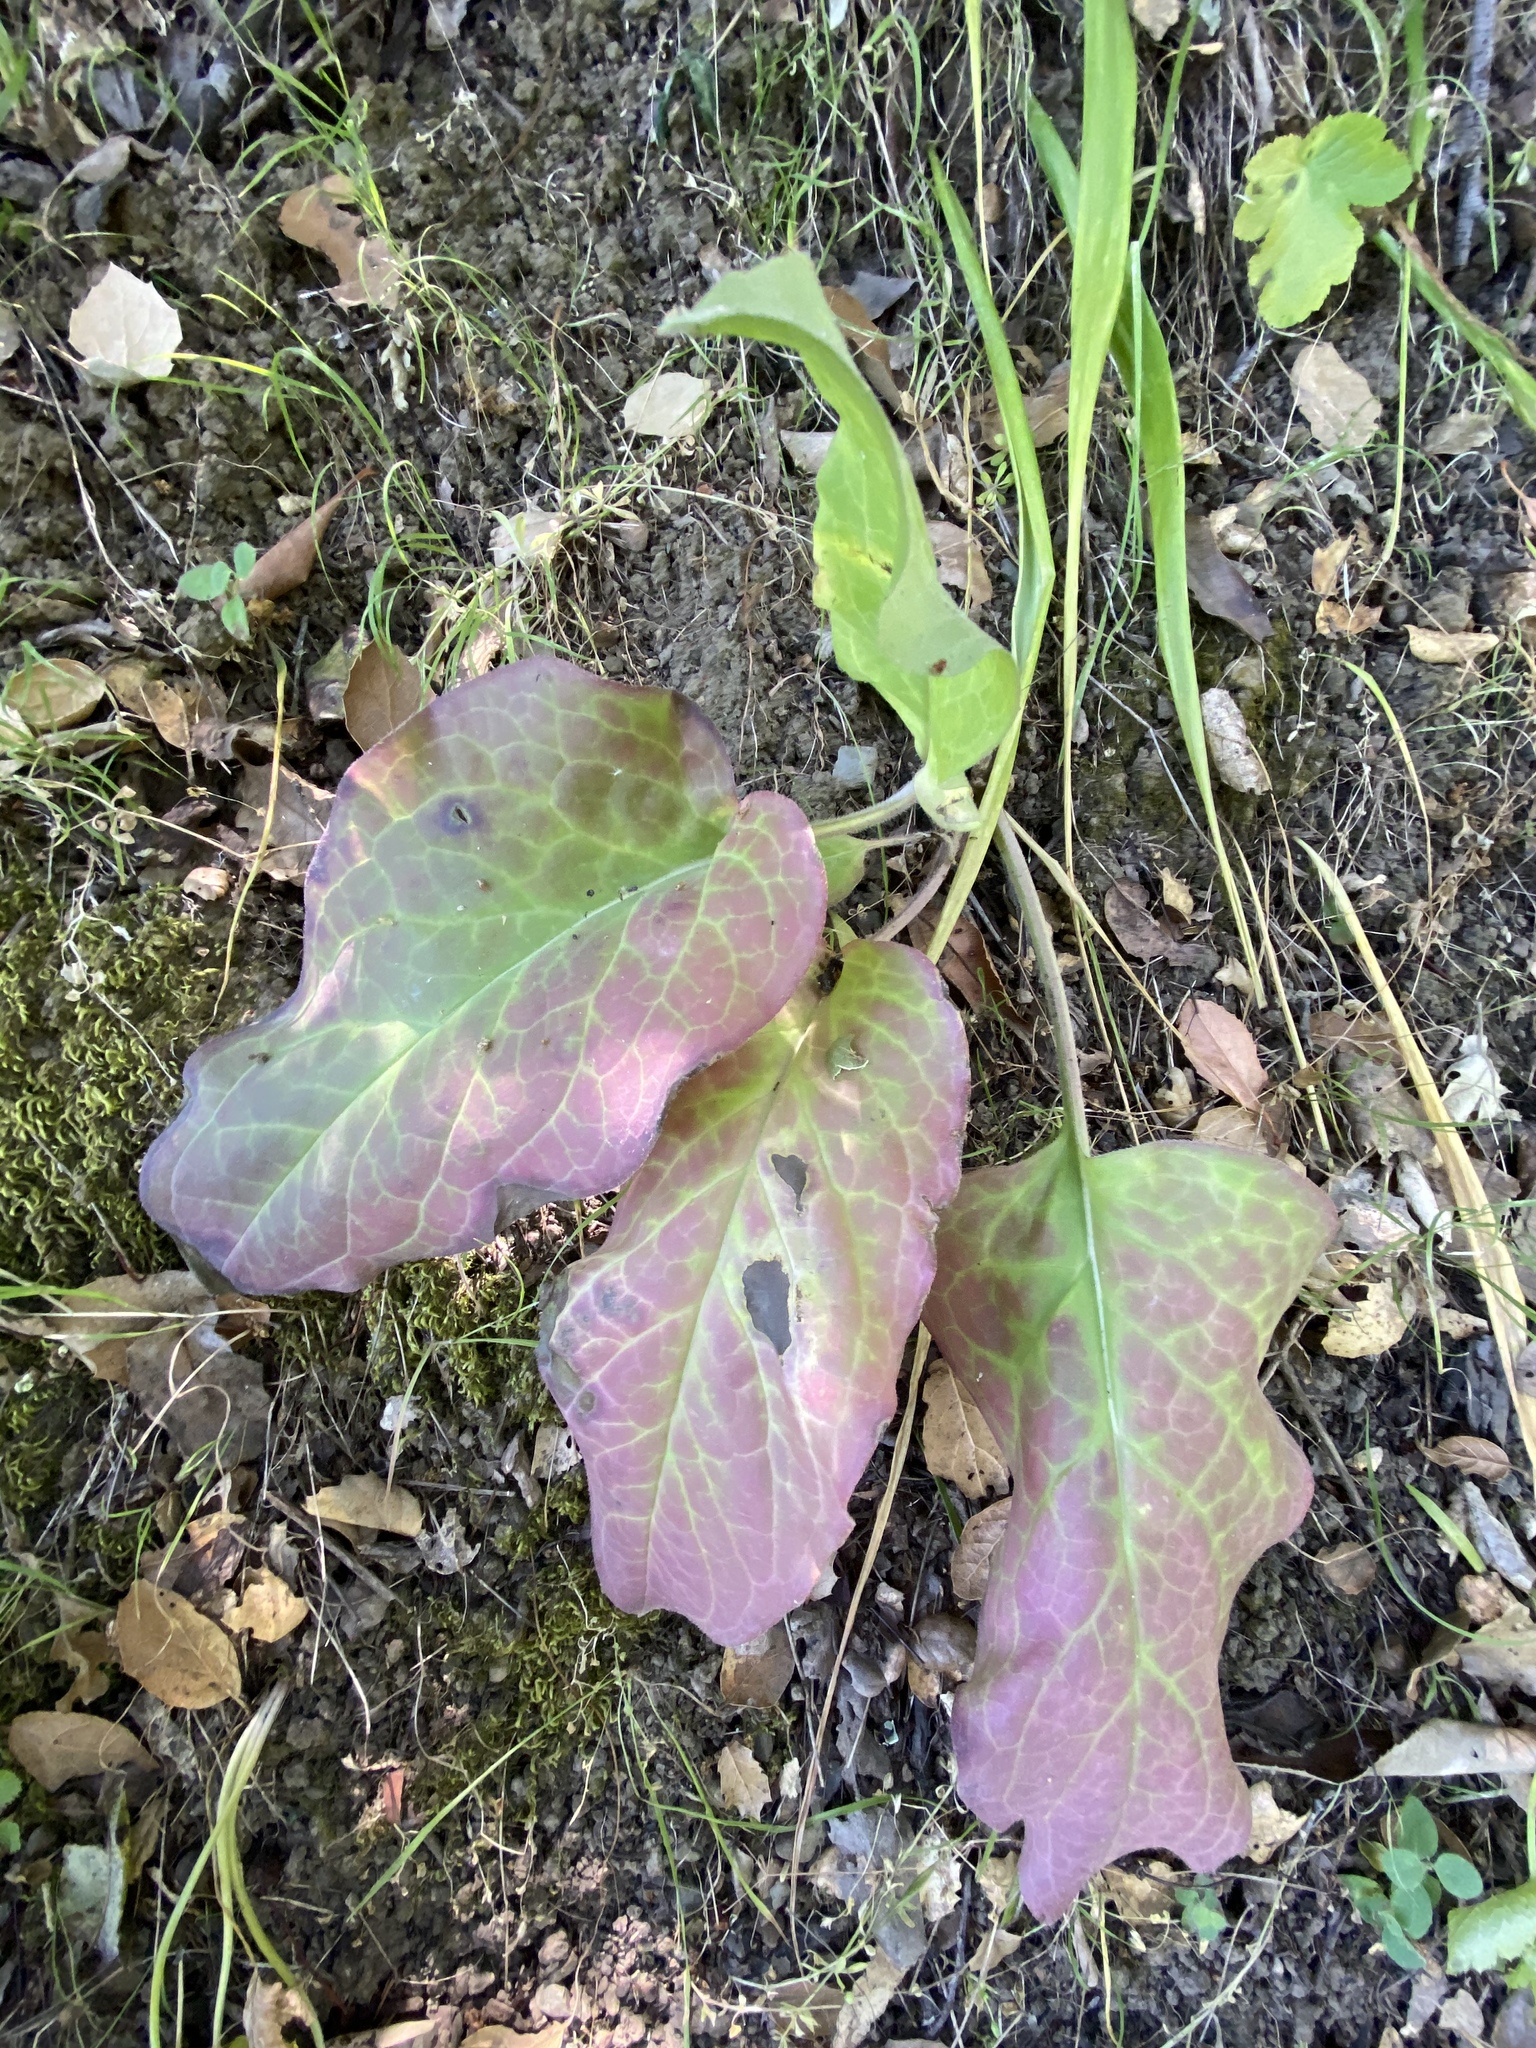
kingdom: Plantae
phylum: Tracheophyta
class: Magnoliopsida
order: Boraginales
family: Boraginaceae
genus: Adelinia
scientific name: Adelinia grande
